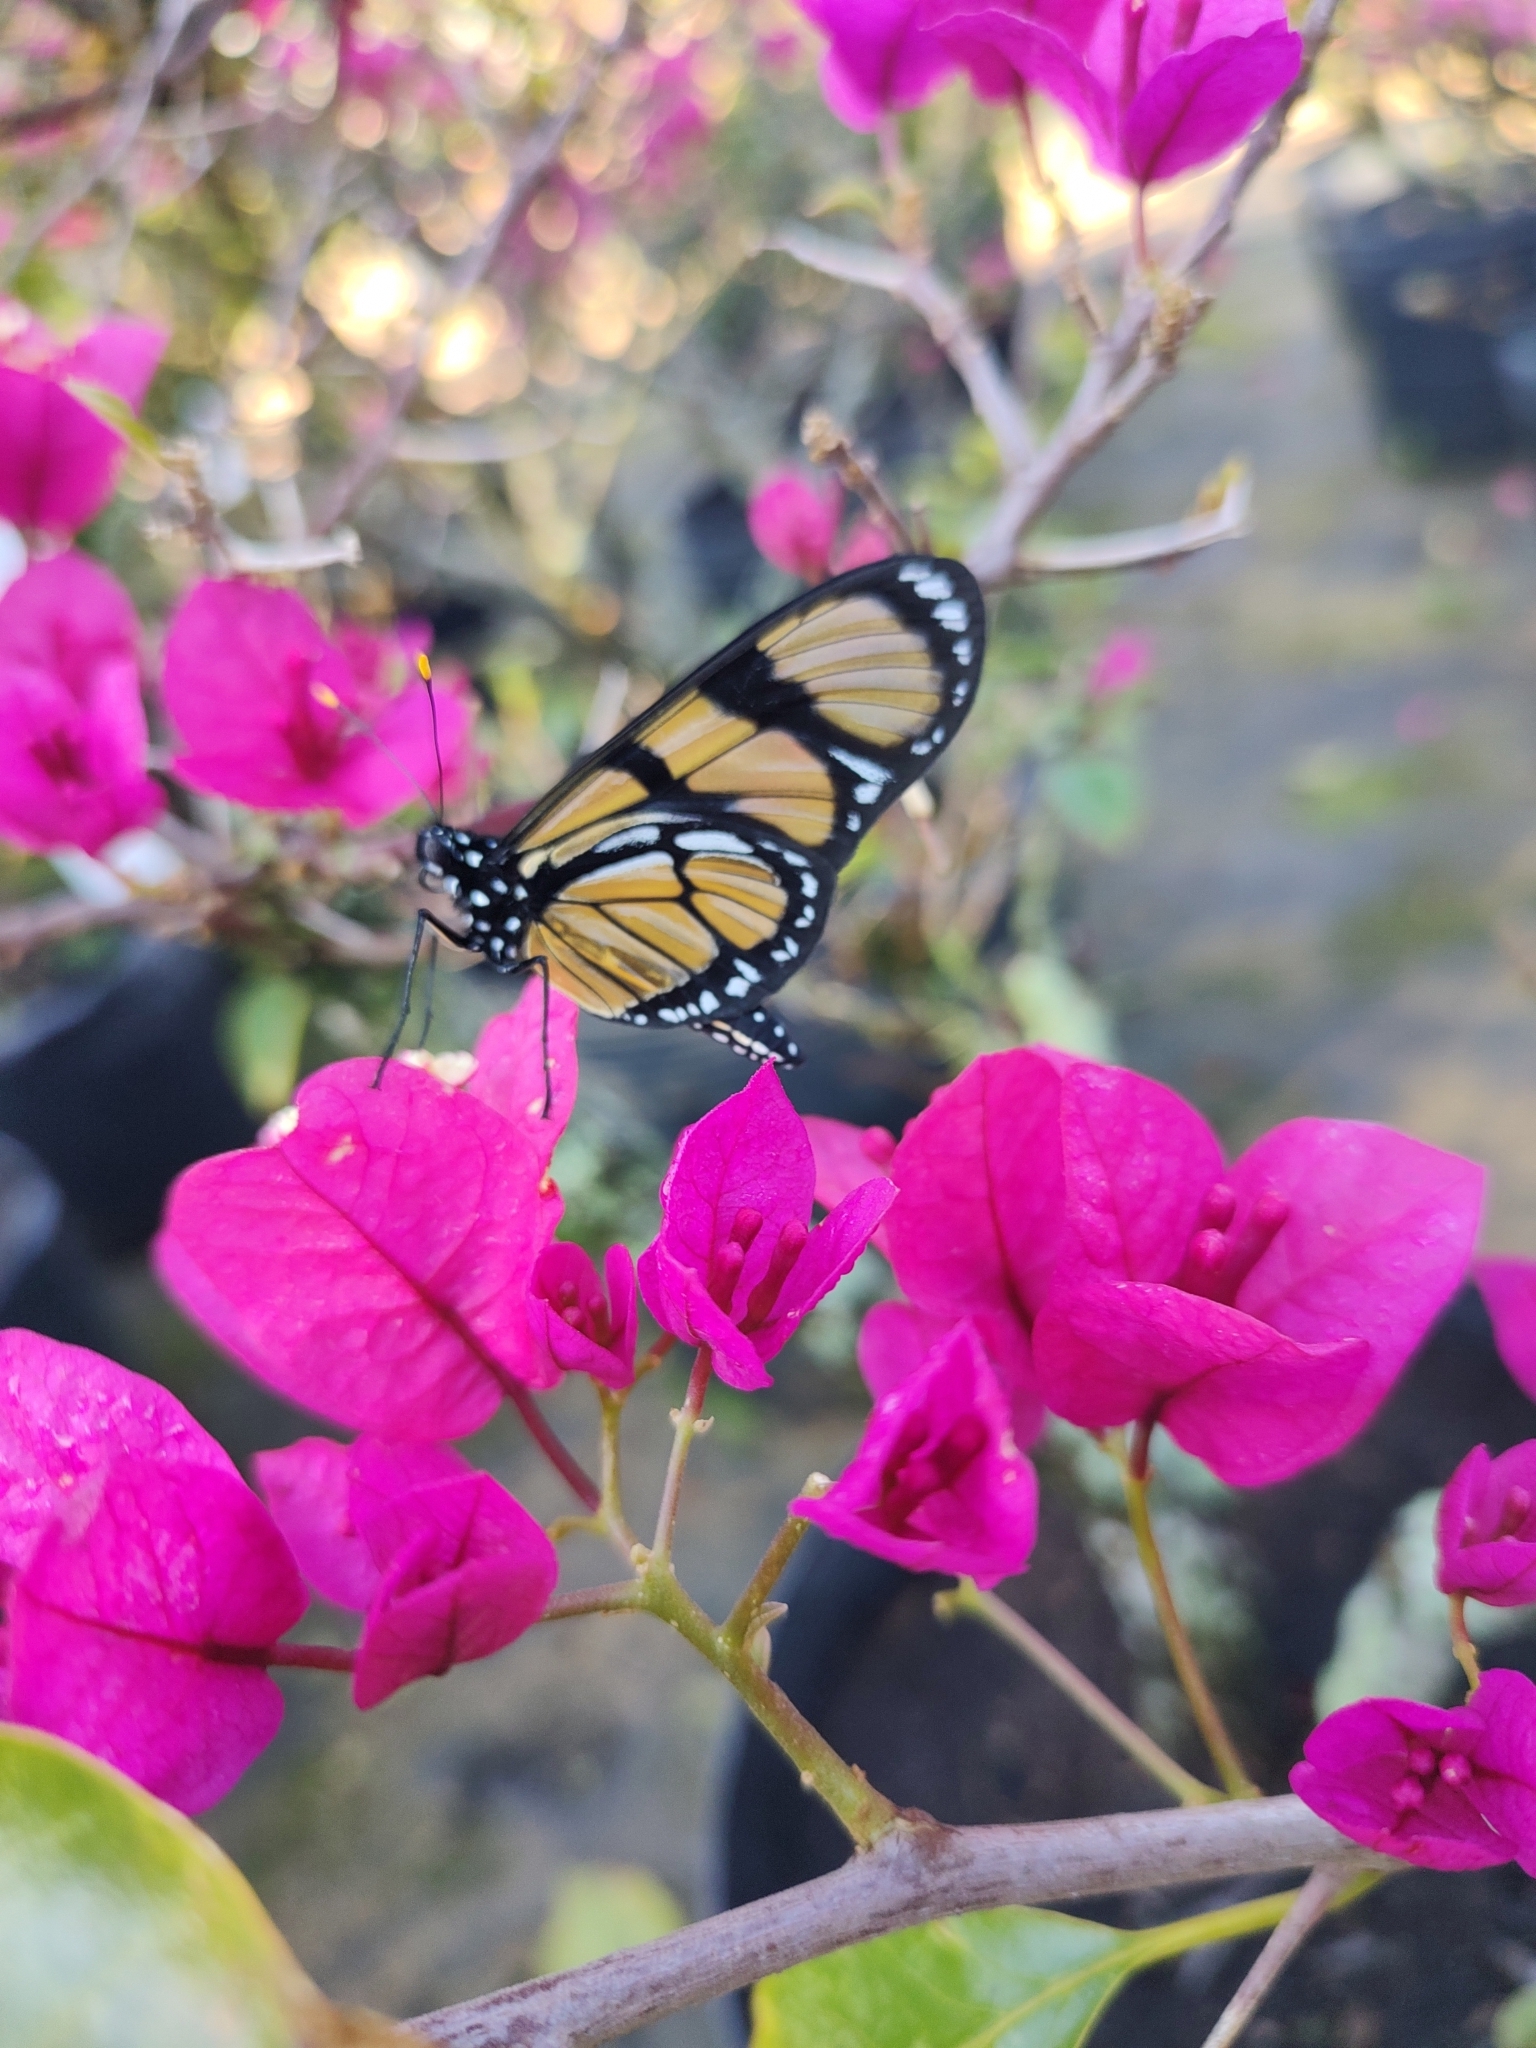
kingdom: Animalia
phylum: Arthropoda
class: Insecta
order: Lepidoptera
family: Nymphalidae
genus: Methona
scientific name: Methona themisto
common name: Themisto amberwing
